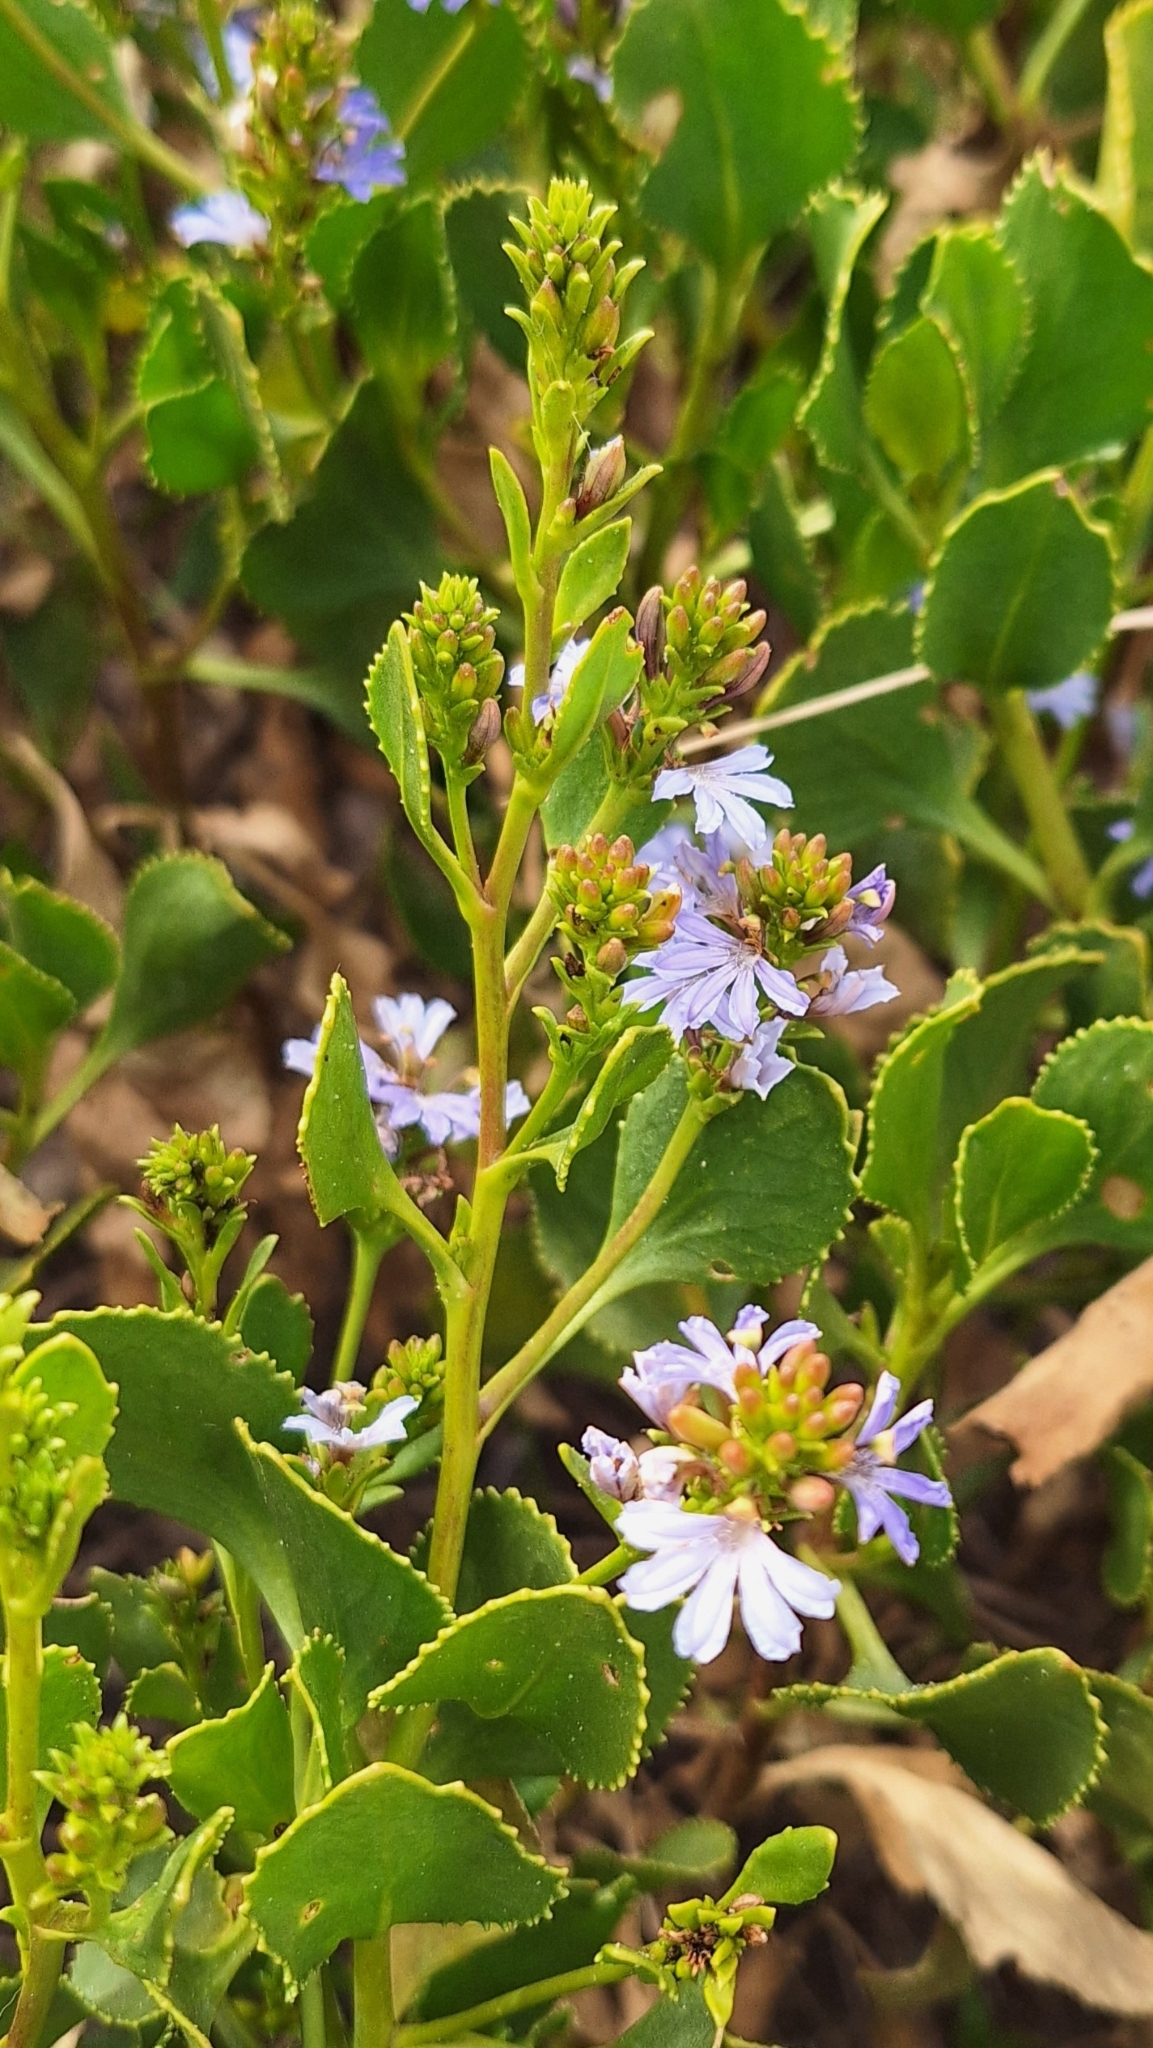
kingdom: Plantae
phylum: Tracheophyta
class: Magnoliopsida
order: Asterales
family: Goodeniaceae
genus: Scaevola
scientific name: Scaevola crassifolia
